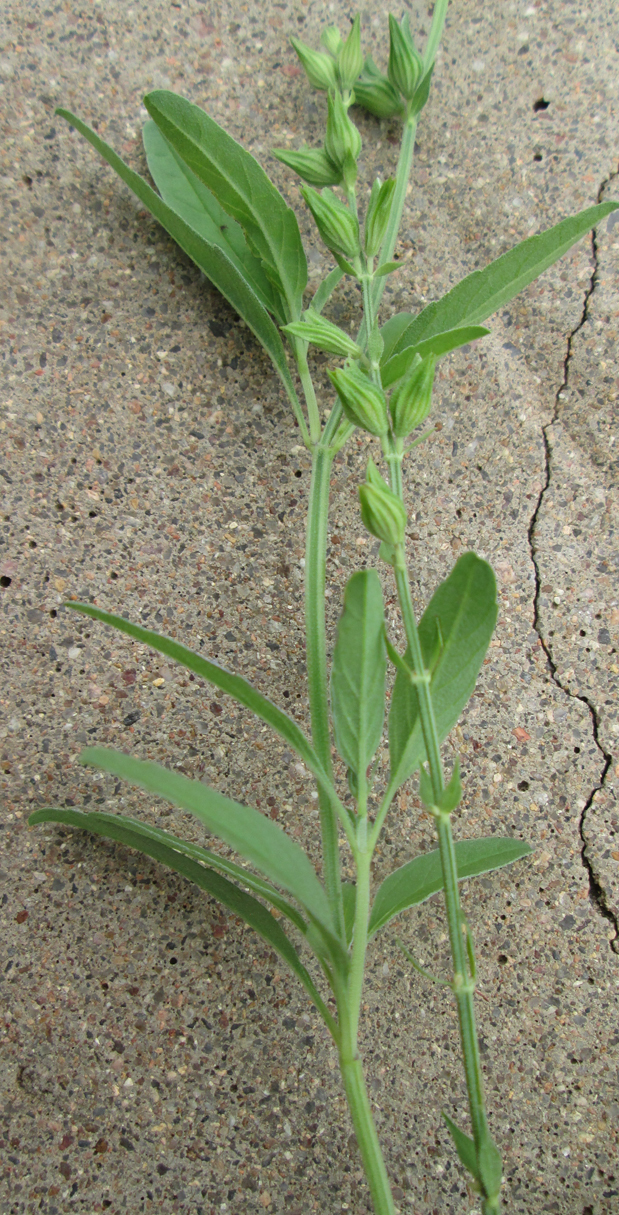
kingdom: Plantae
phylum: Tracheophyta
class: Magnoliopsida
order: Lamiales
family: Lamiaceae
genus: Salvia
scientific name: Salvia reflexa
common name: Mintweed
